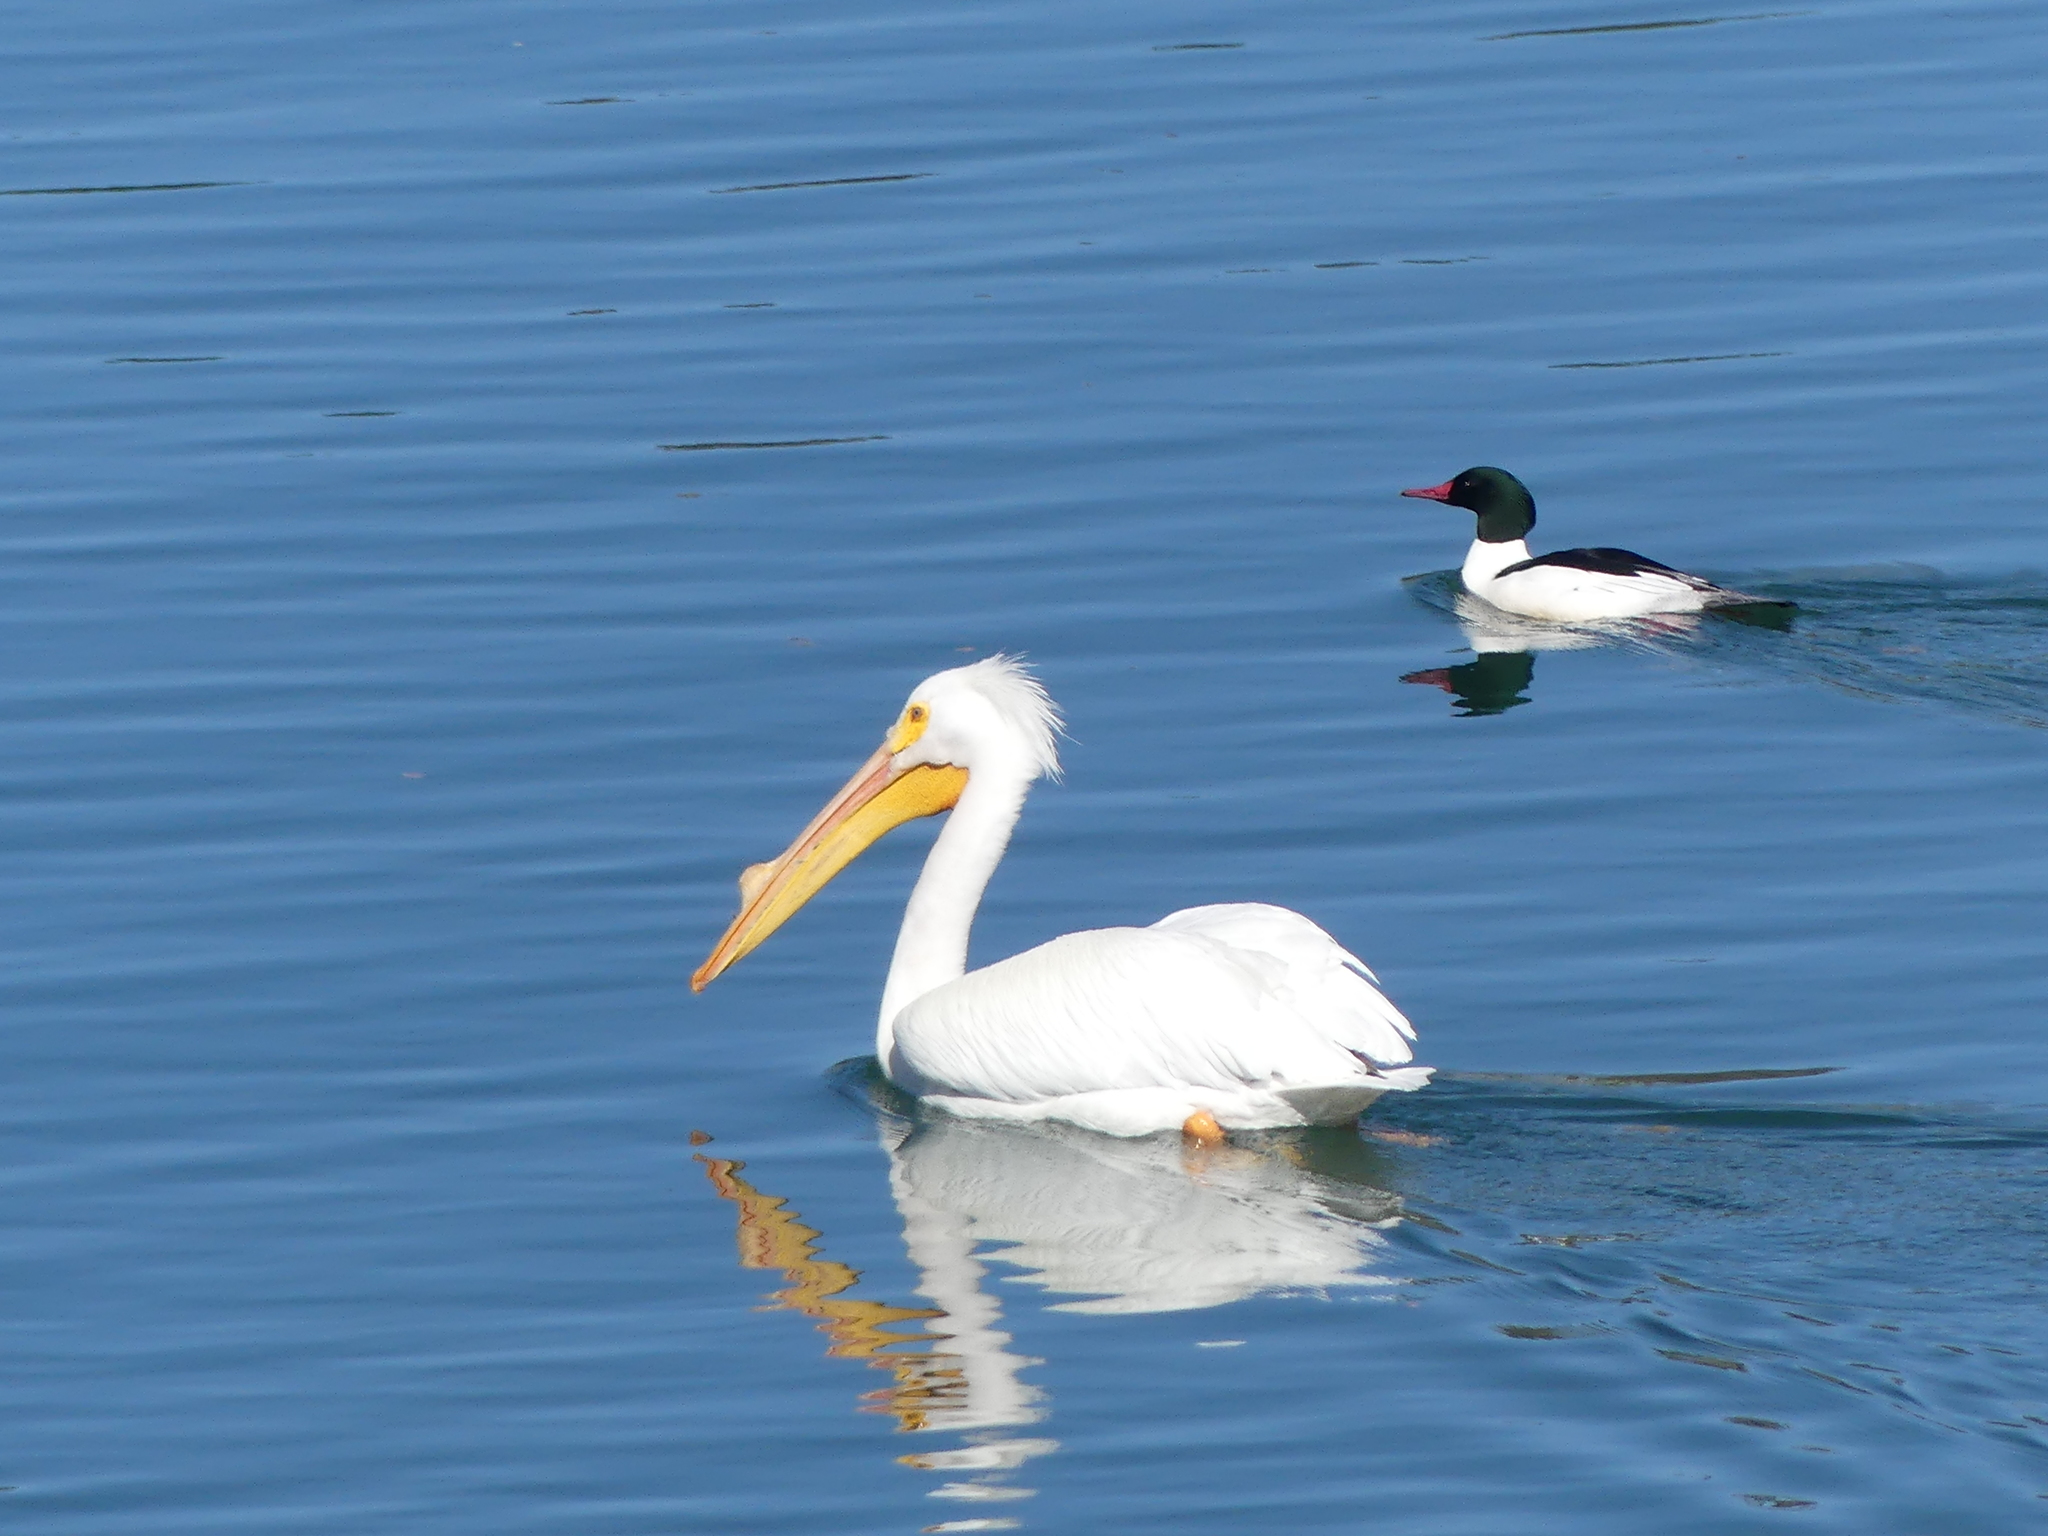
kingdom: Animalia
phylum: Chordata
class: Aves
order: Pelecaniformes
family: Pelecanidae
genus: Pelecanus
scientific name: Pelecanus erythrorhynchos
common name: American white pelican
